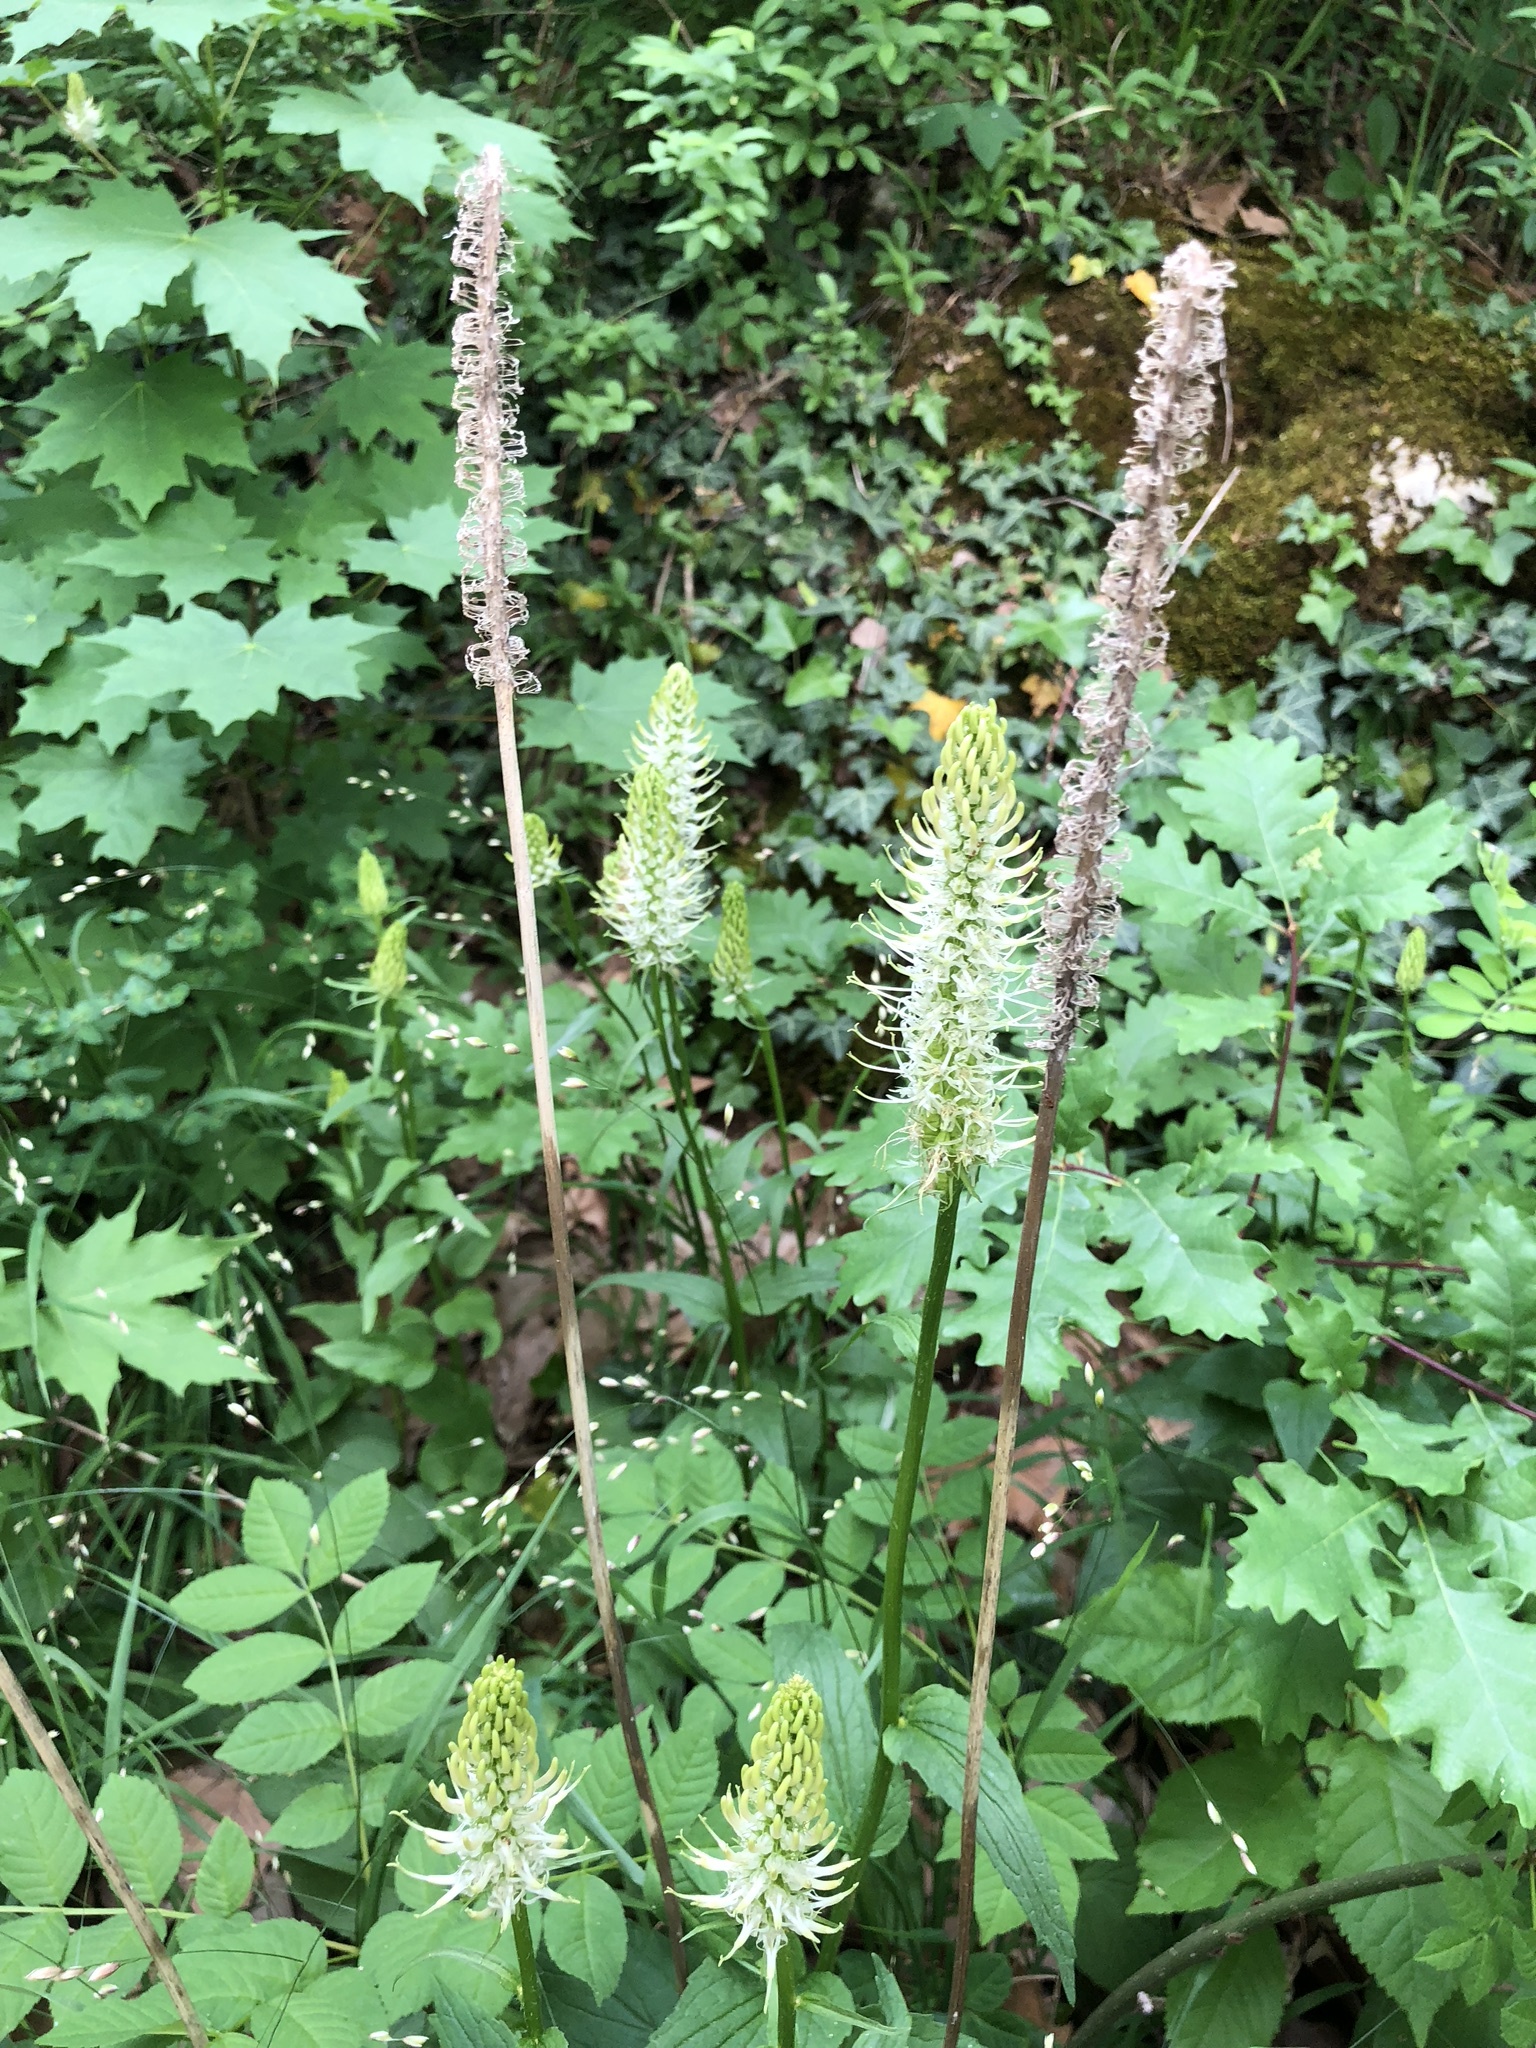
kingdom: Plantae
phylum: Tracheophyta
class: Magnoliopsida
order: Asterales
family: Campanulaceae
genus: Phyteuma
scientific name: Phyteuma spicatum
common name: Spiked rampion
